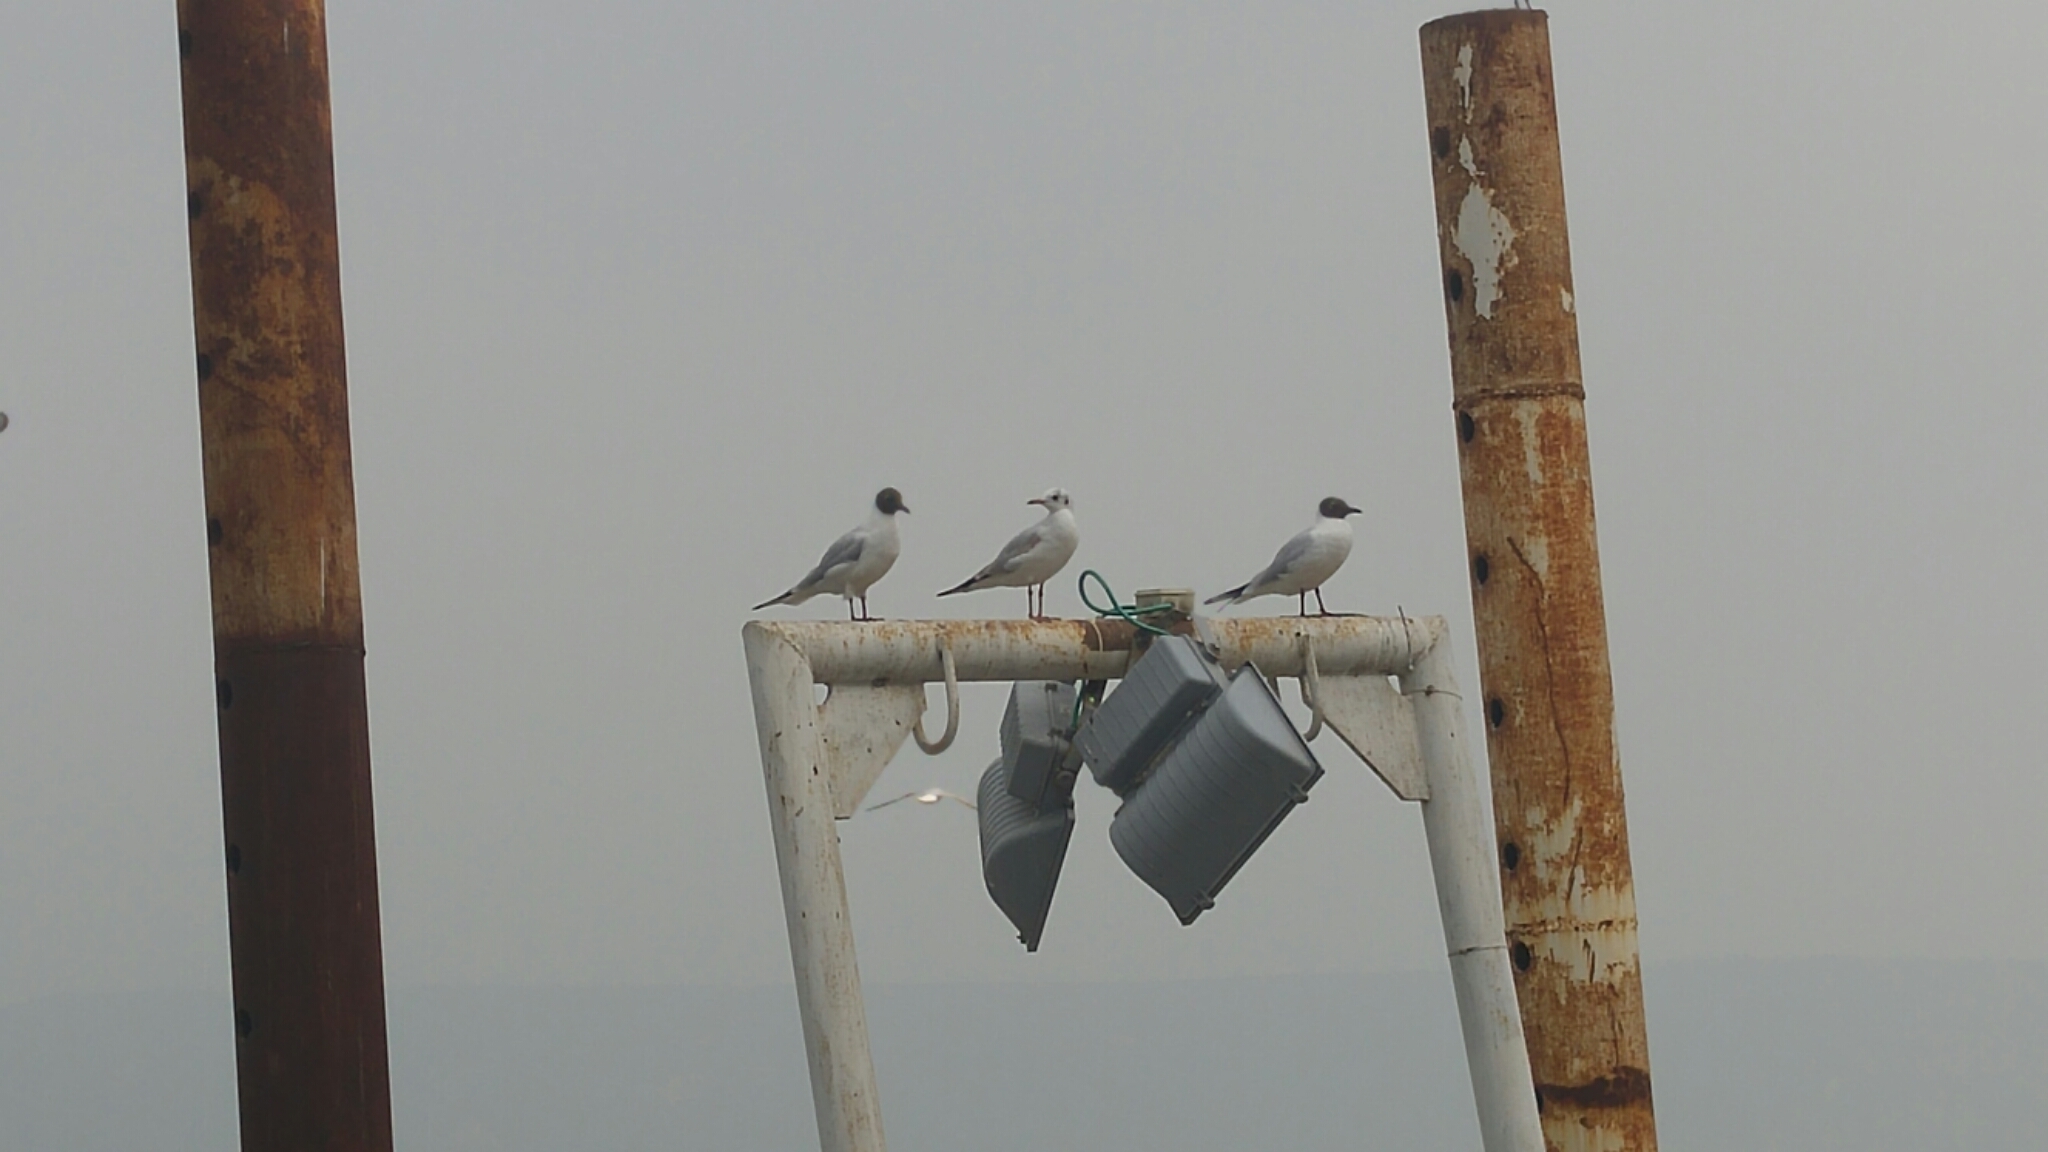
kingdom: Animalia
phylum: Chordata
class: Aves
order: Charadriiformes
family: Laridae
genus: Chroicocephalus
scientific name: Chroicocephalus ridibundus
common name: Black-headed gull
